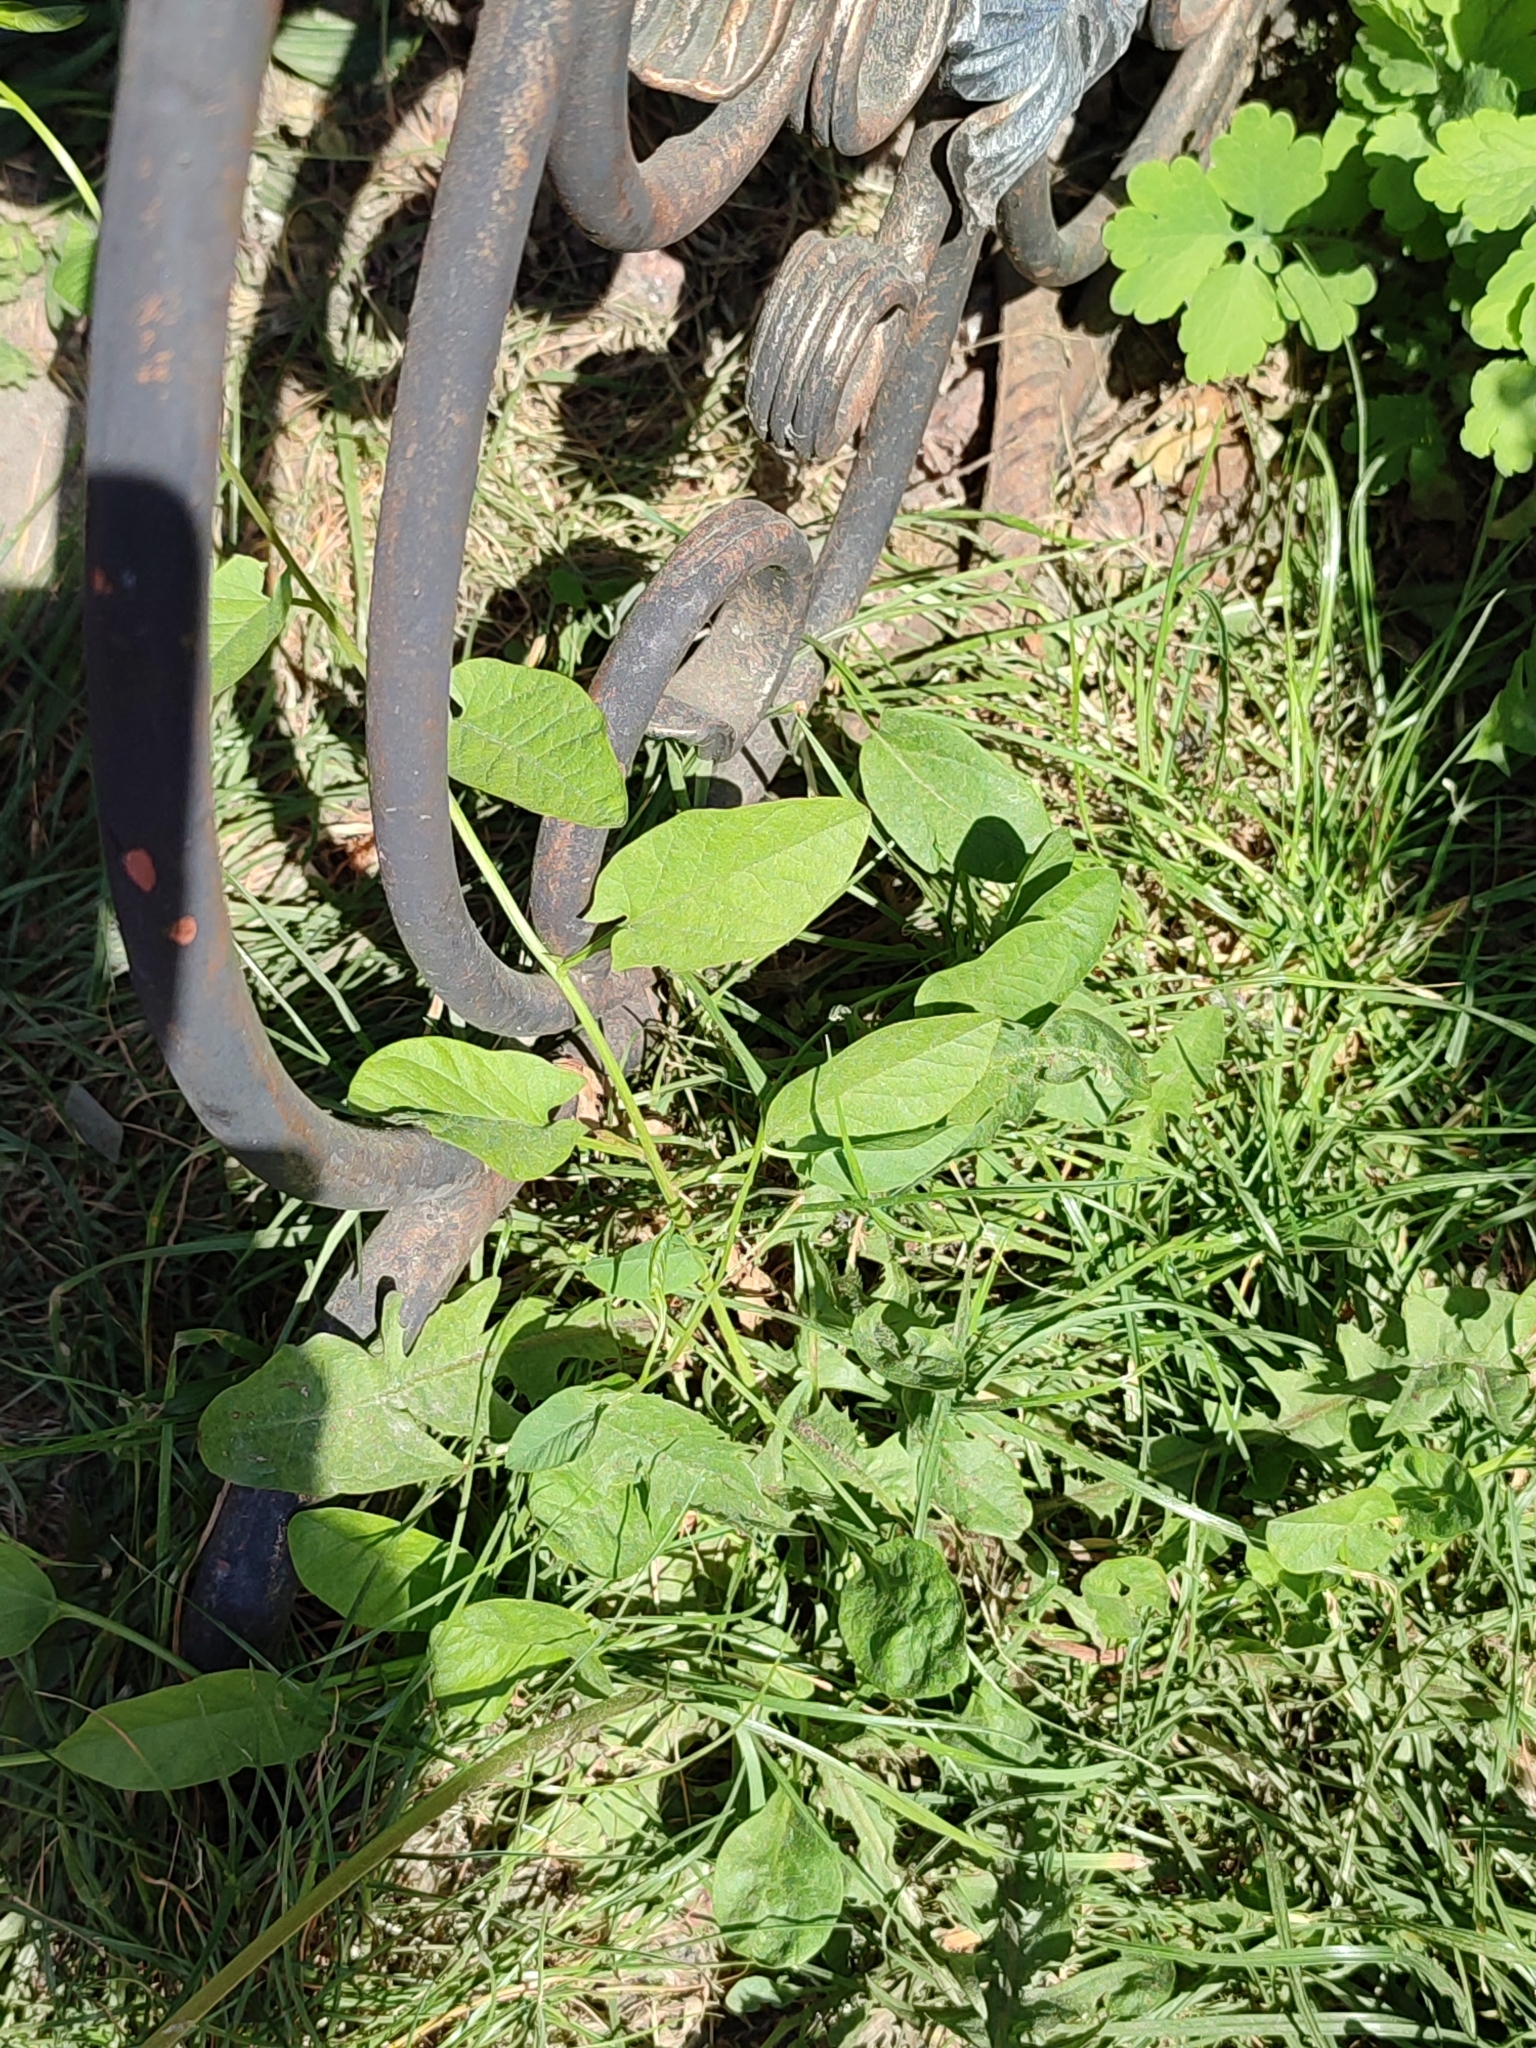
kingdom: Plantae
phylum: Tracheophyta
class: Magnoliopsida
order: Solanales
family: Convolvulaceae
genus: Convolvulus
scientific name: Convolvulus arvensis
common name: Field bindweed
